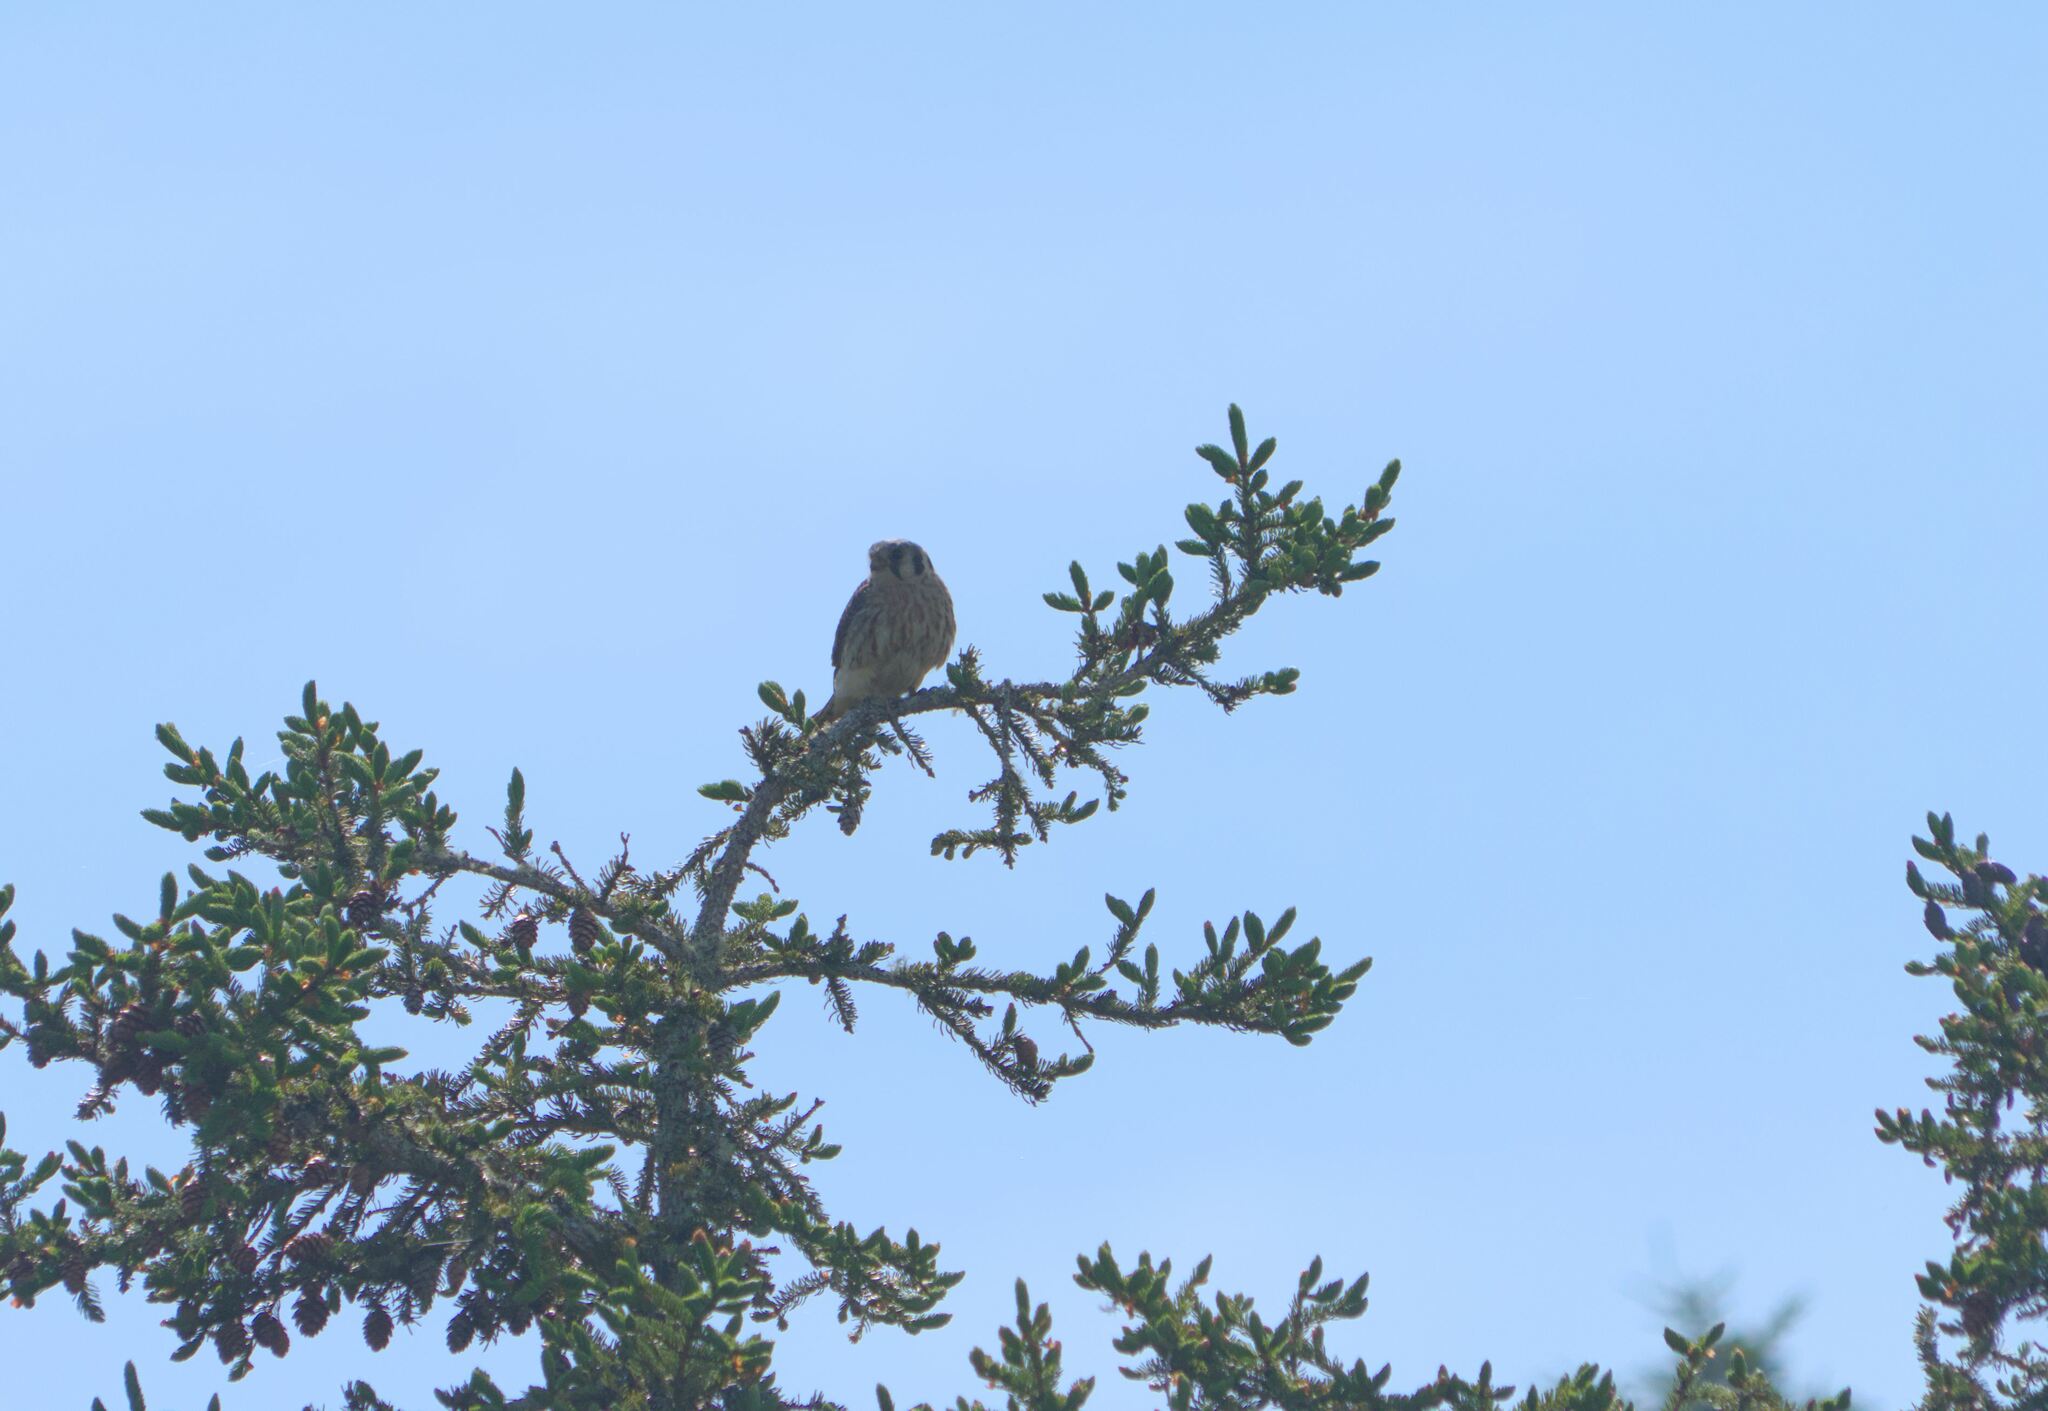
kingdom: Animalia
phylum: Chordata
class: Aves
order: Falconiformes
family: Falconidae
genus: Falco
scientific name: Falco sparverius
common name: American kestrel
